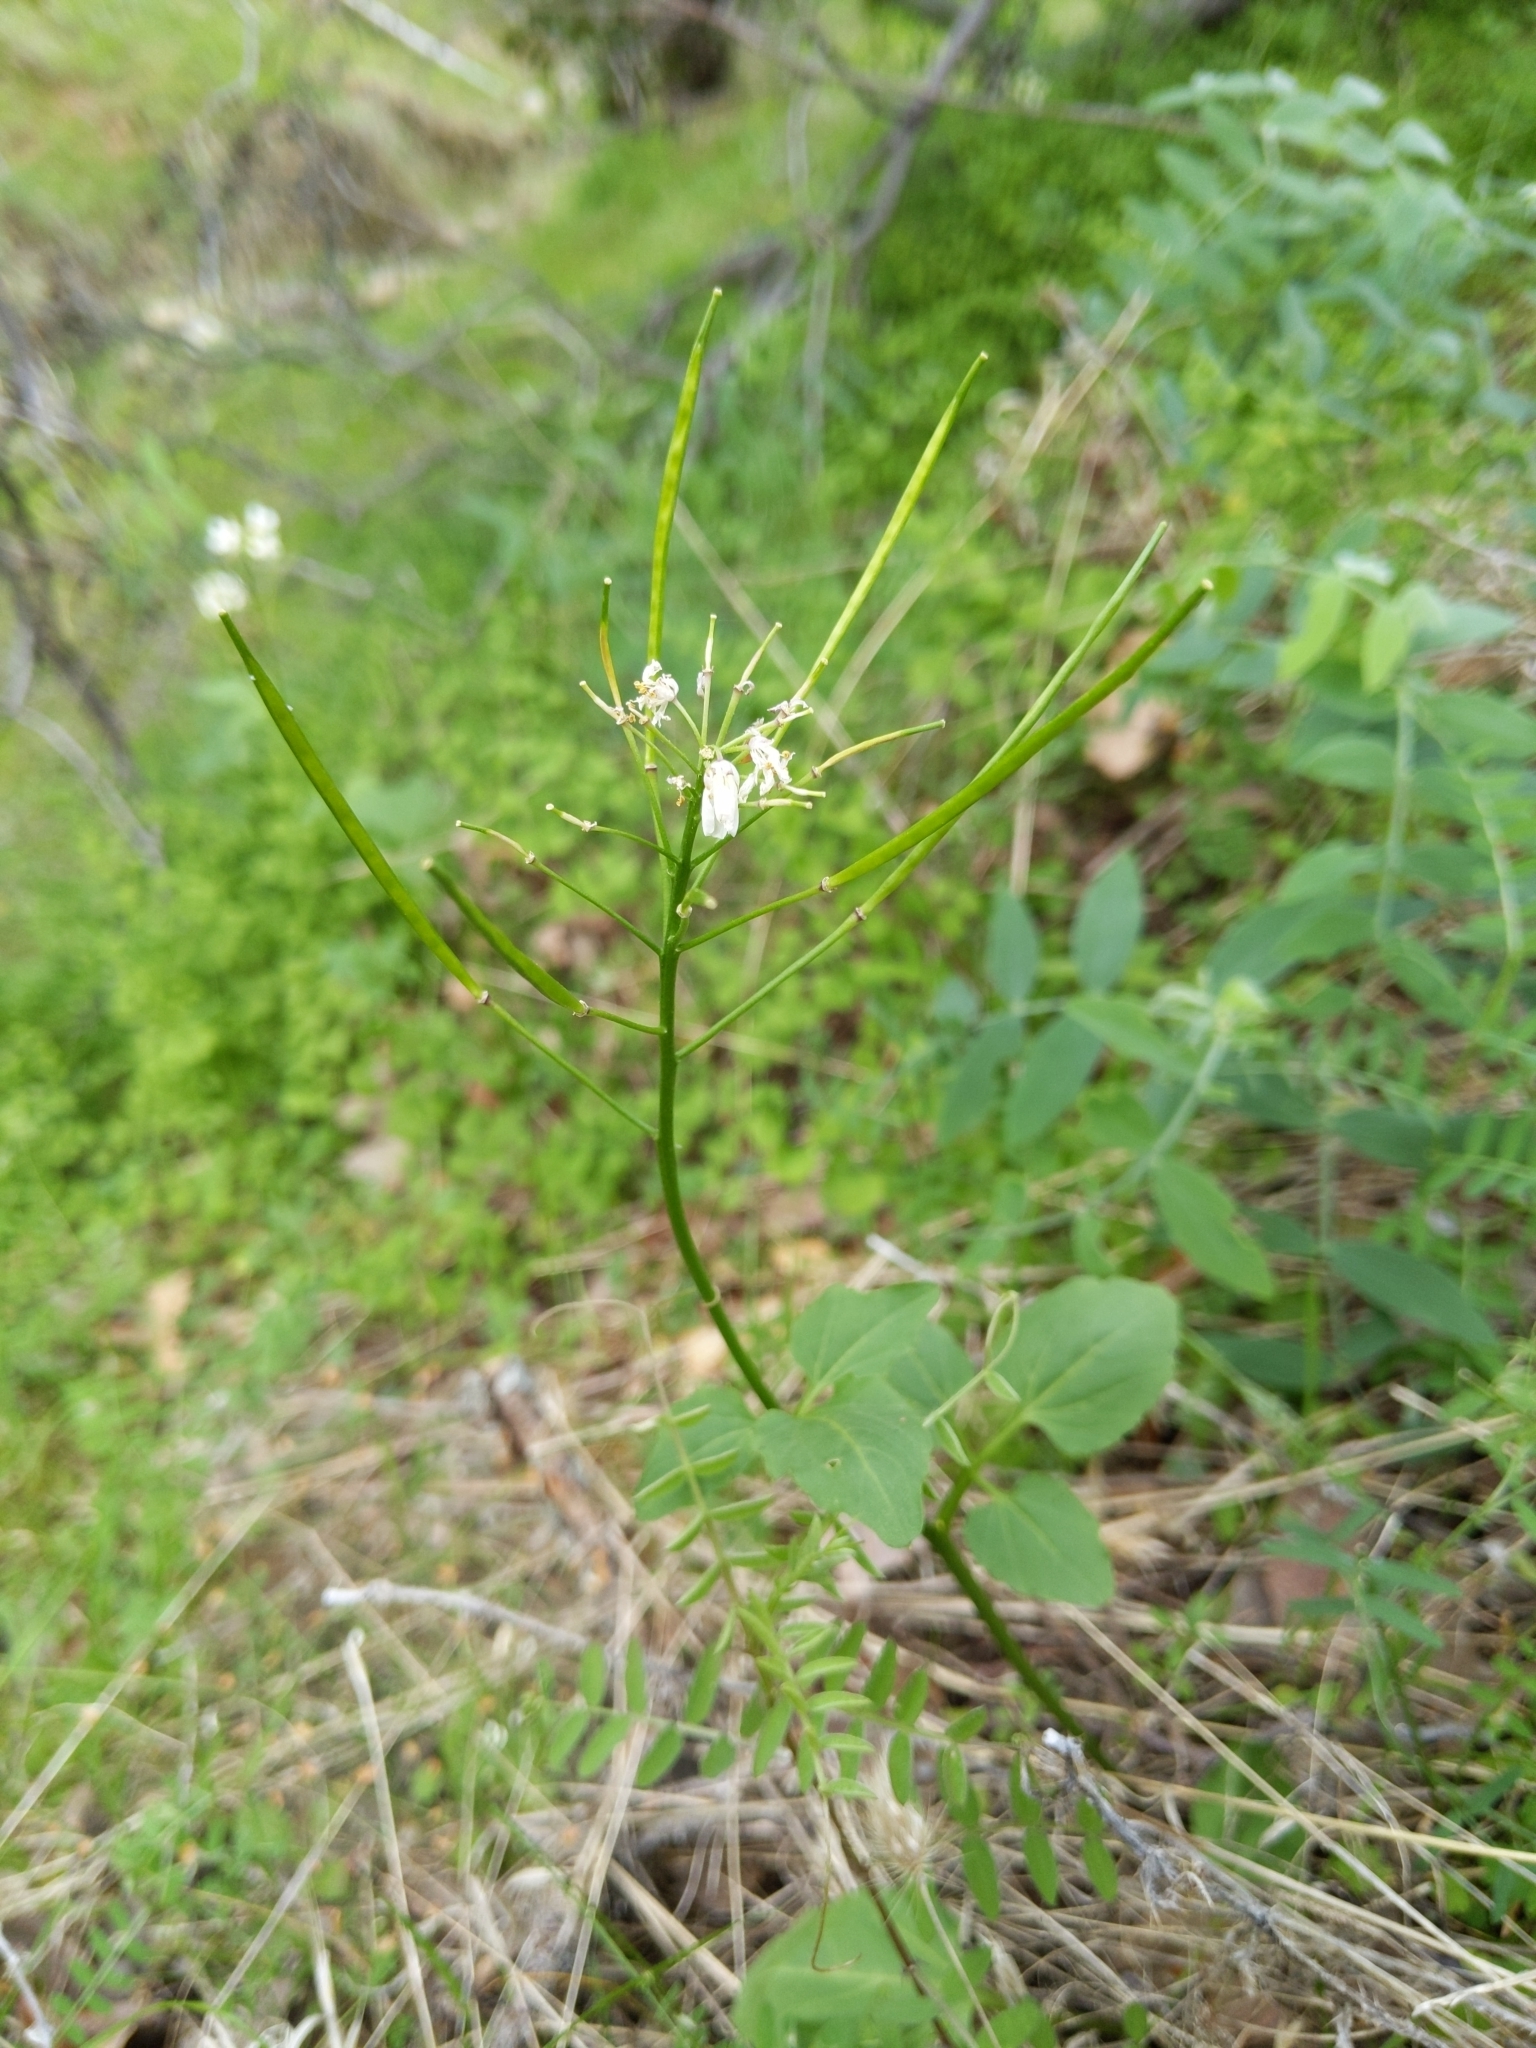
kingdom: Plantae
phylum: Tracheophyta
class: Magnoliopsida
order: Brassicales
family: Brassicaceae
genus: Cardamine
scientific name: Cardamine californica
